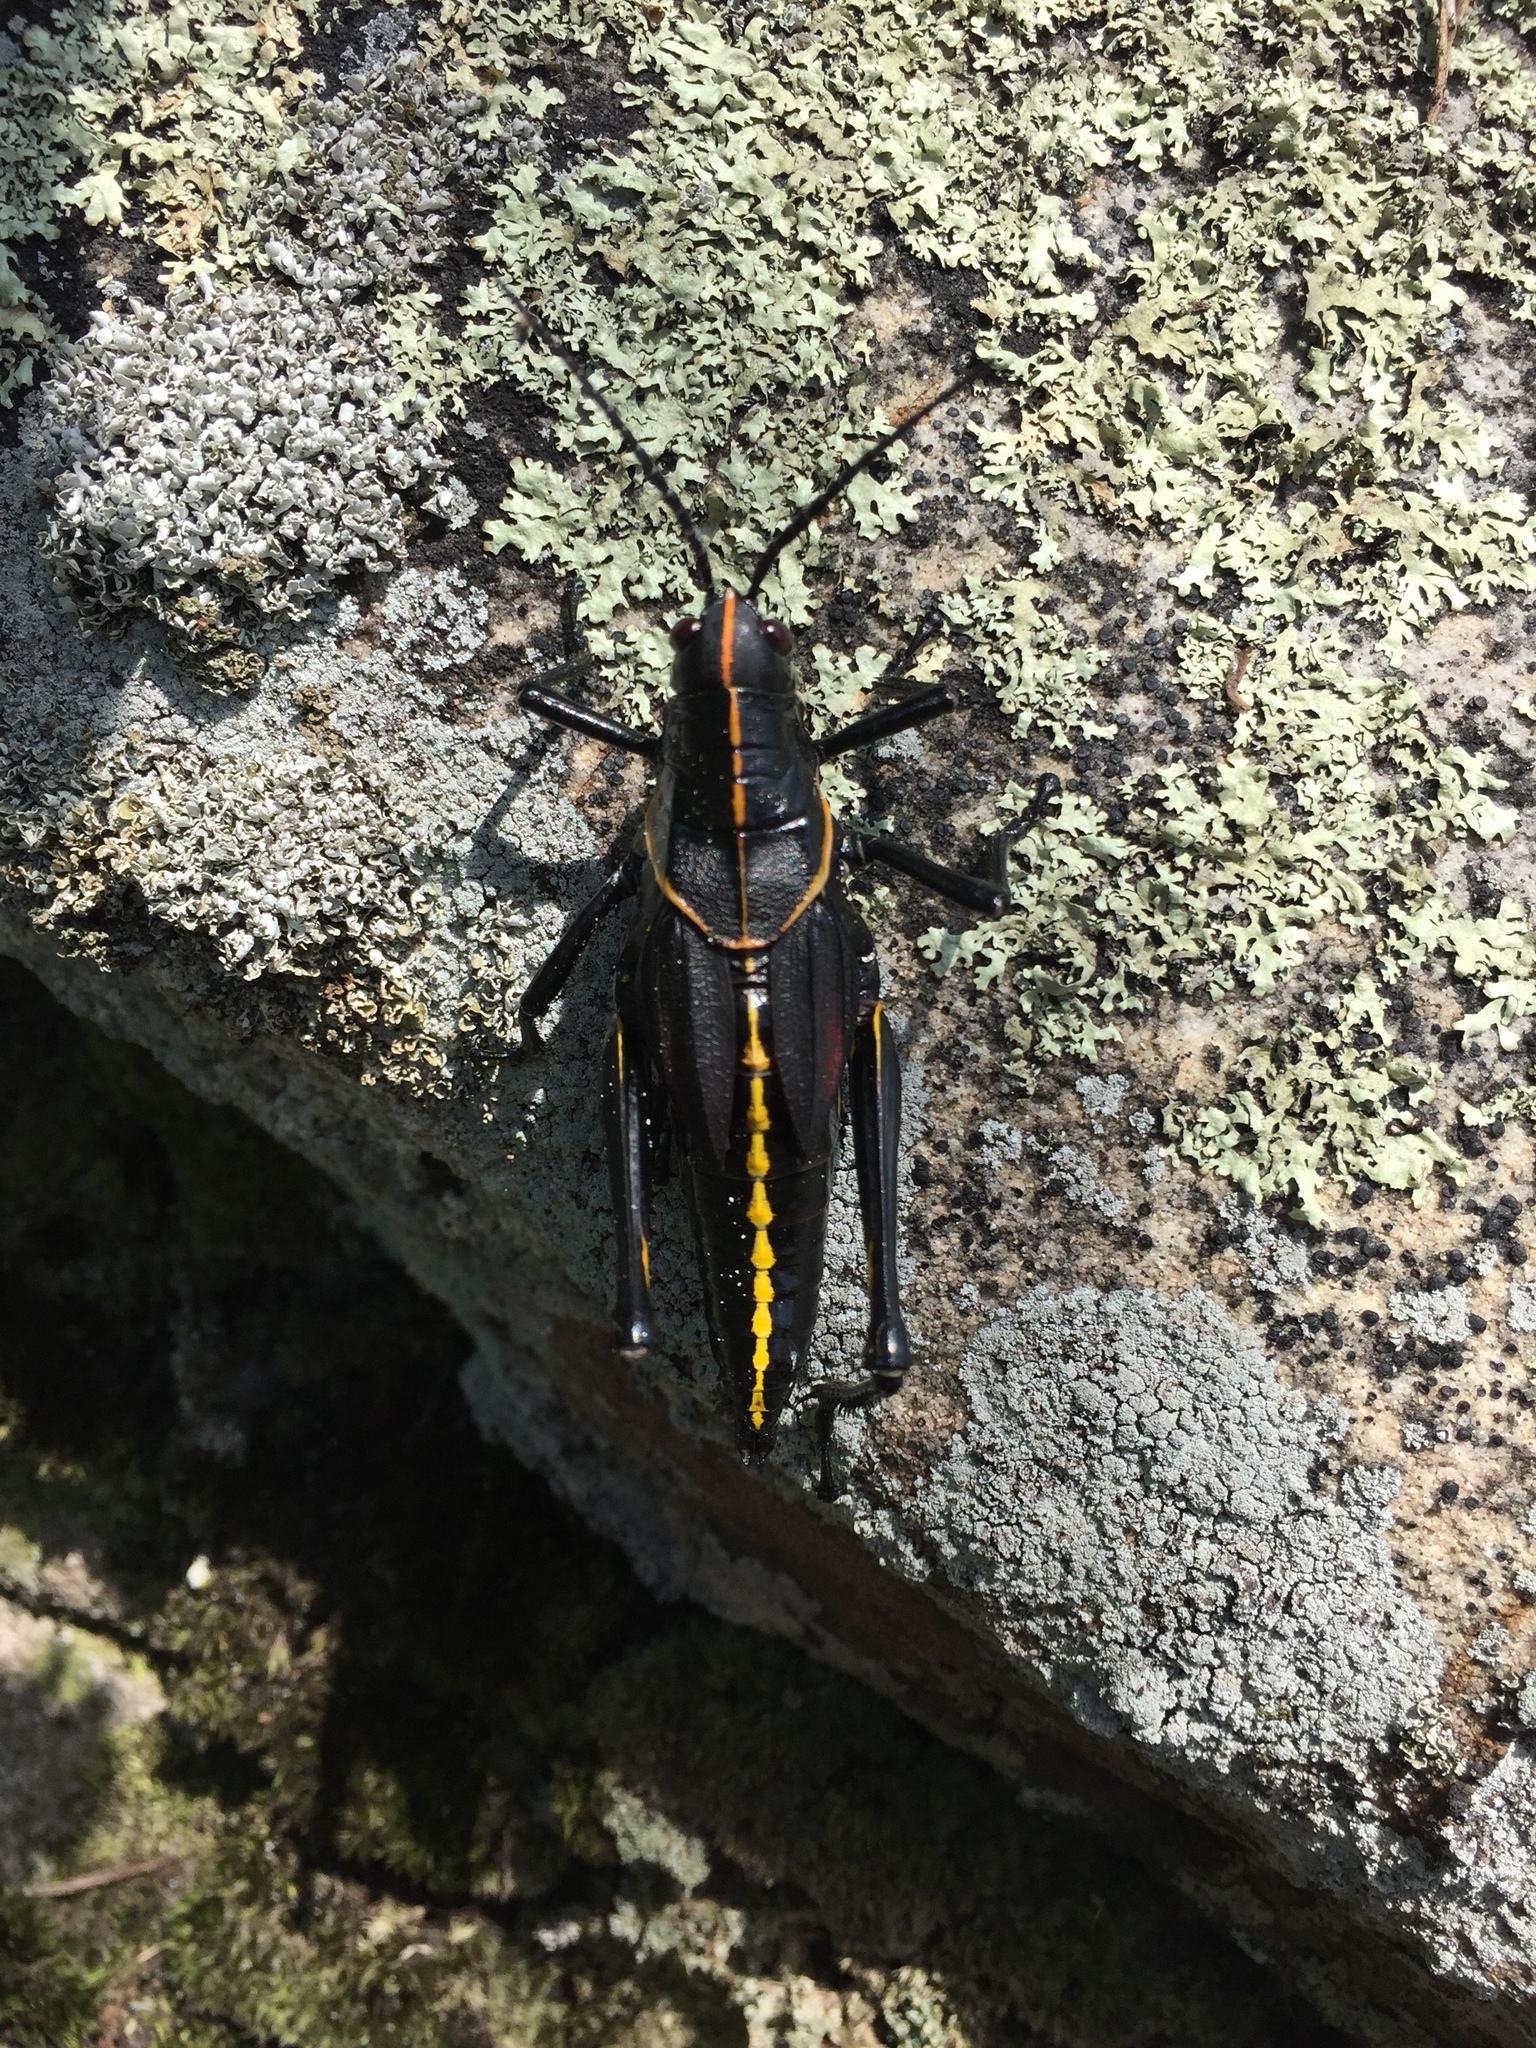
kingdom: Animalia
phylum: Arthropoda
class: Insecta
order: Orthoptera
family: Romaleidae
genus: Romalea
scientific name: Romalea microptera
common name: Eastern lubber grasshopper
